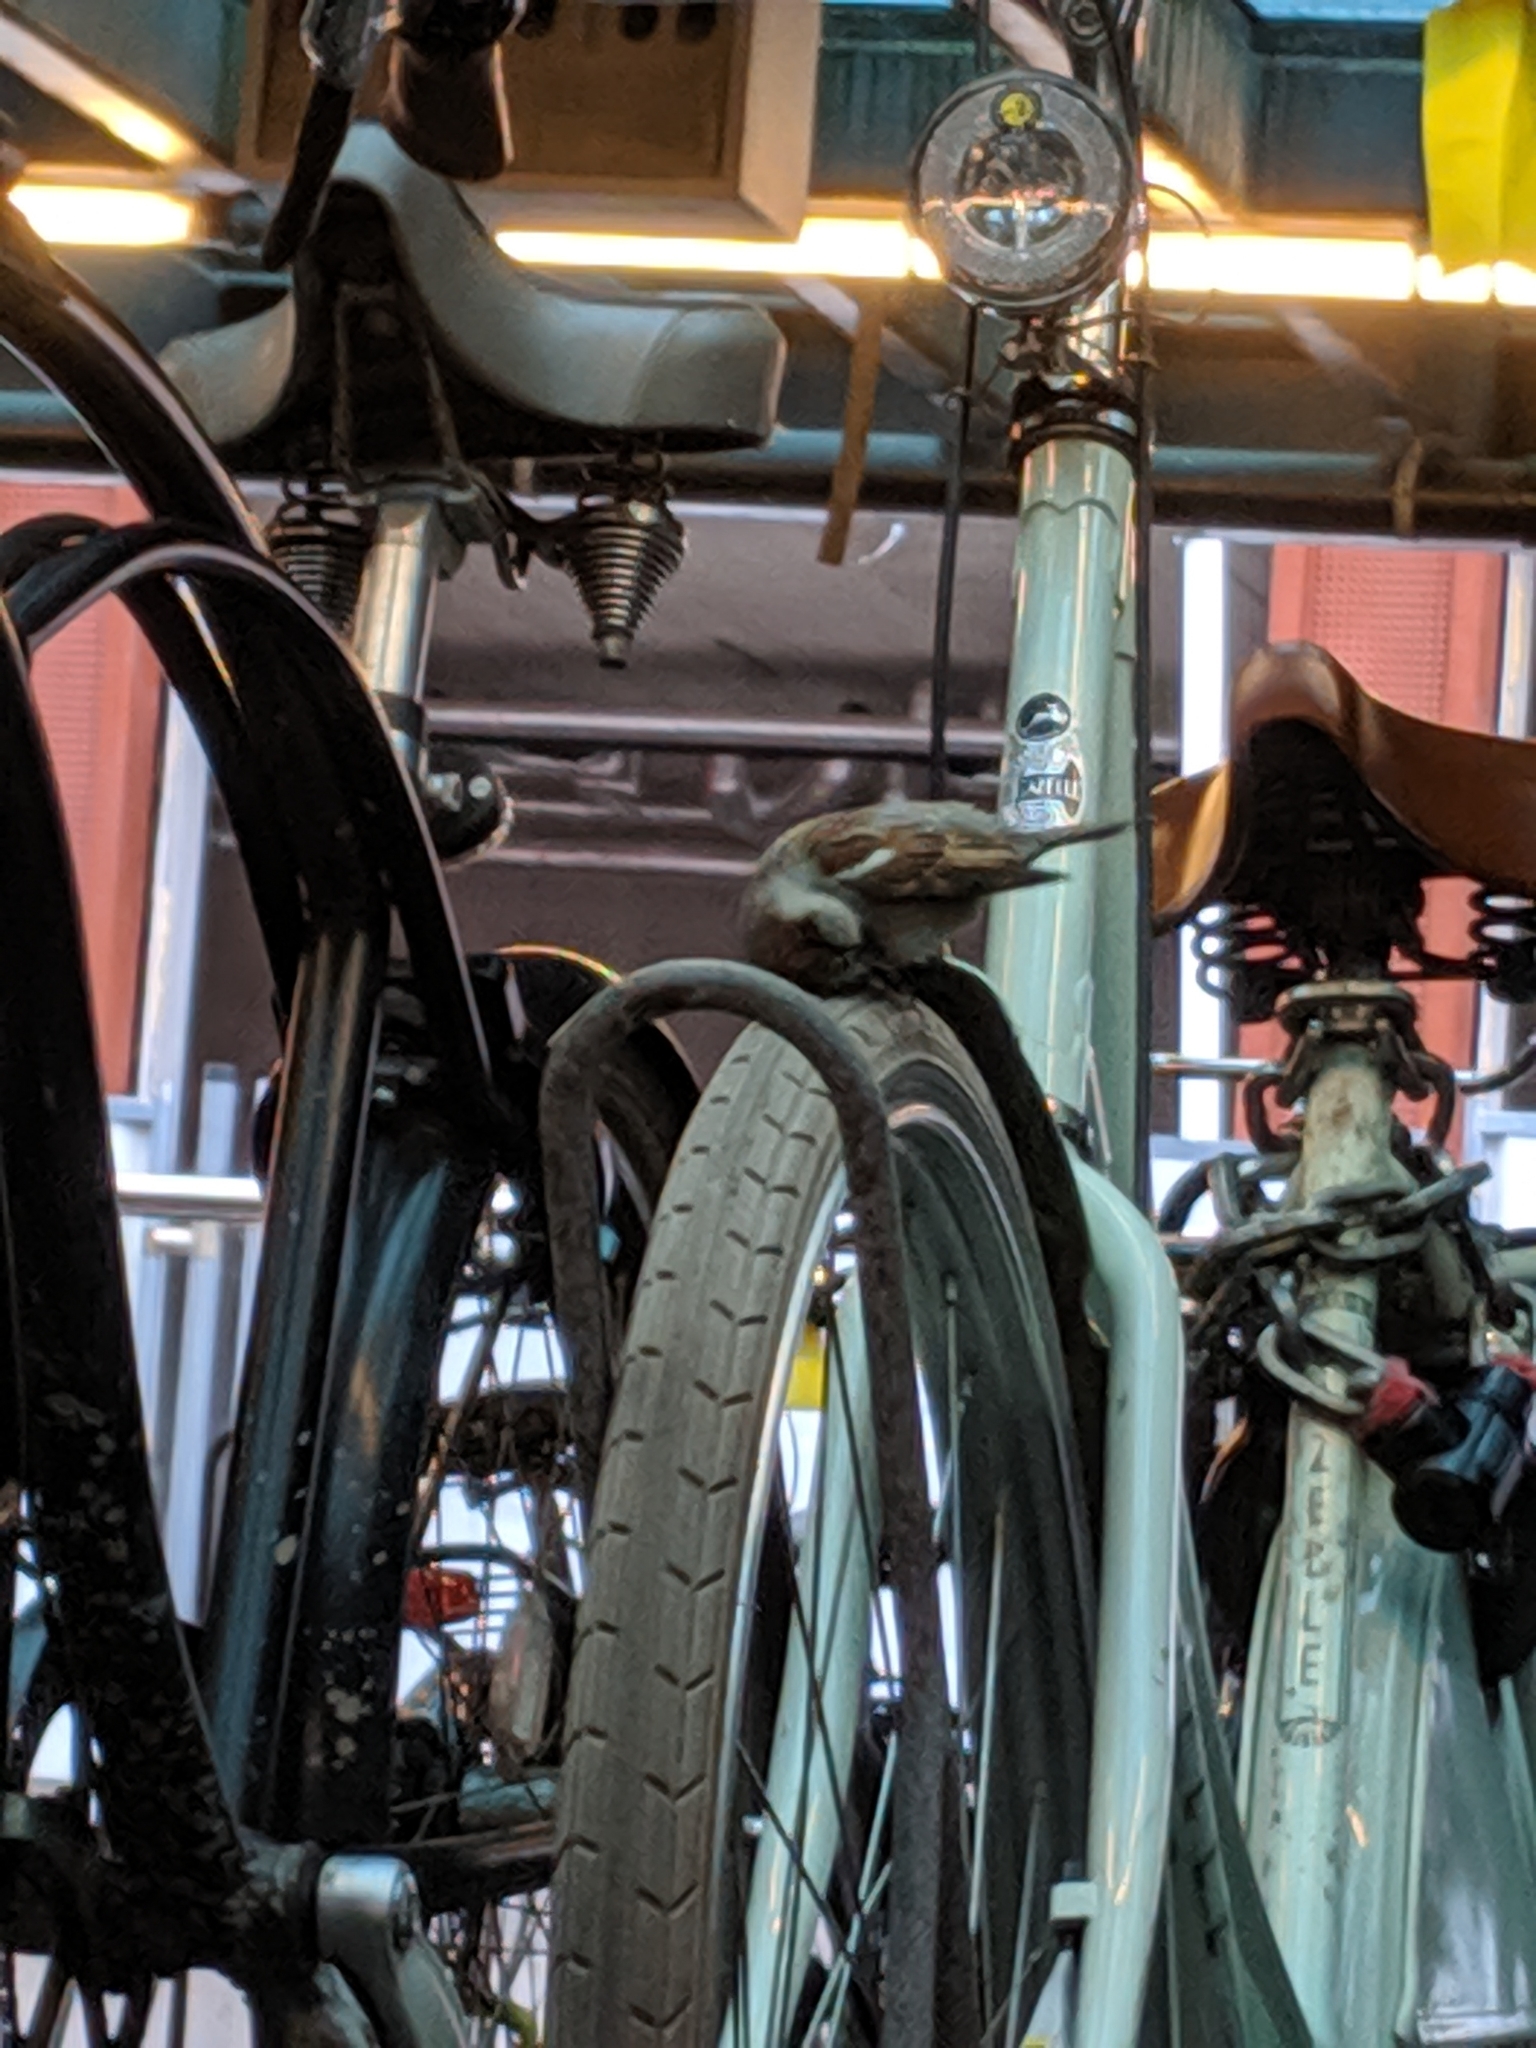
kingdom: Animalia
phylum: Chordata
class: Aves
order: Passeriformes
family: Passeridae
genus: Passer
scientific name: Passer domesticus
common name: House sparrow
